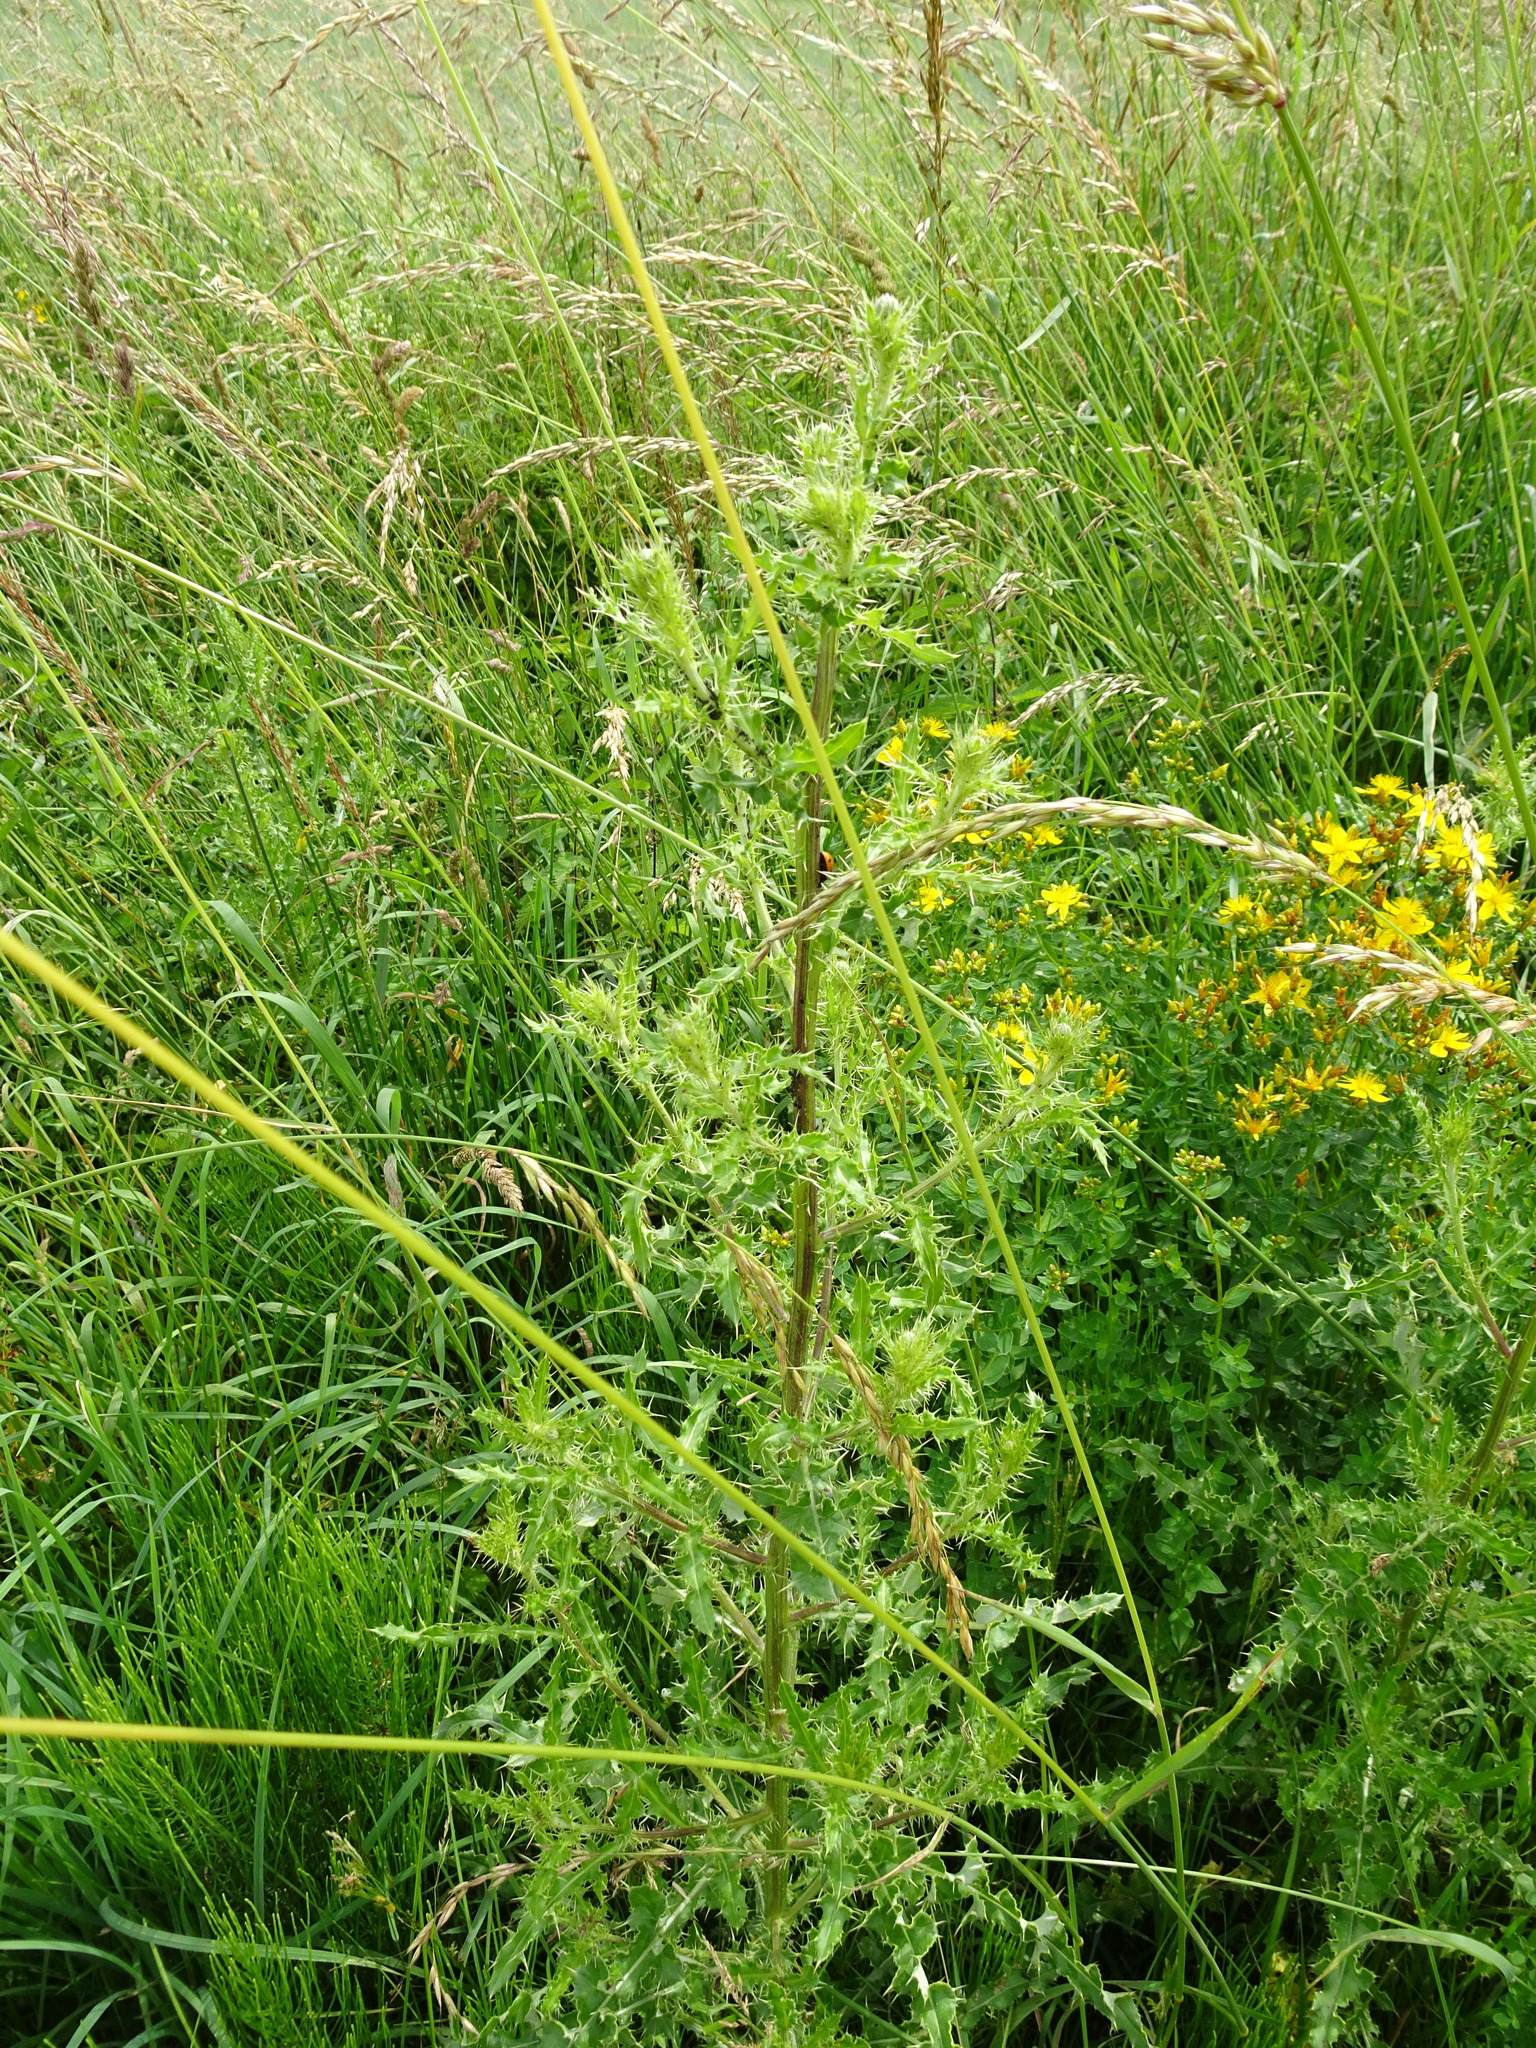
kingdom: Plantae
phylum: Tracheophyta
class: Magnoliopsida
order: Asterales
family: Asteraceae
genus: Cirsium
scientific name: Cirsium arvense
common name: Creeping thistle
